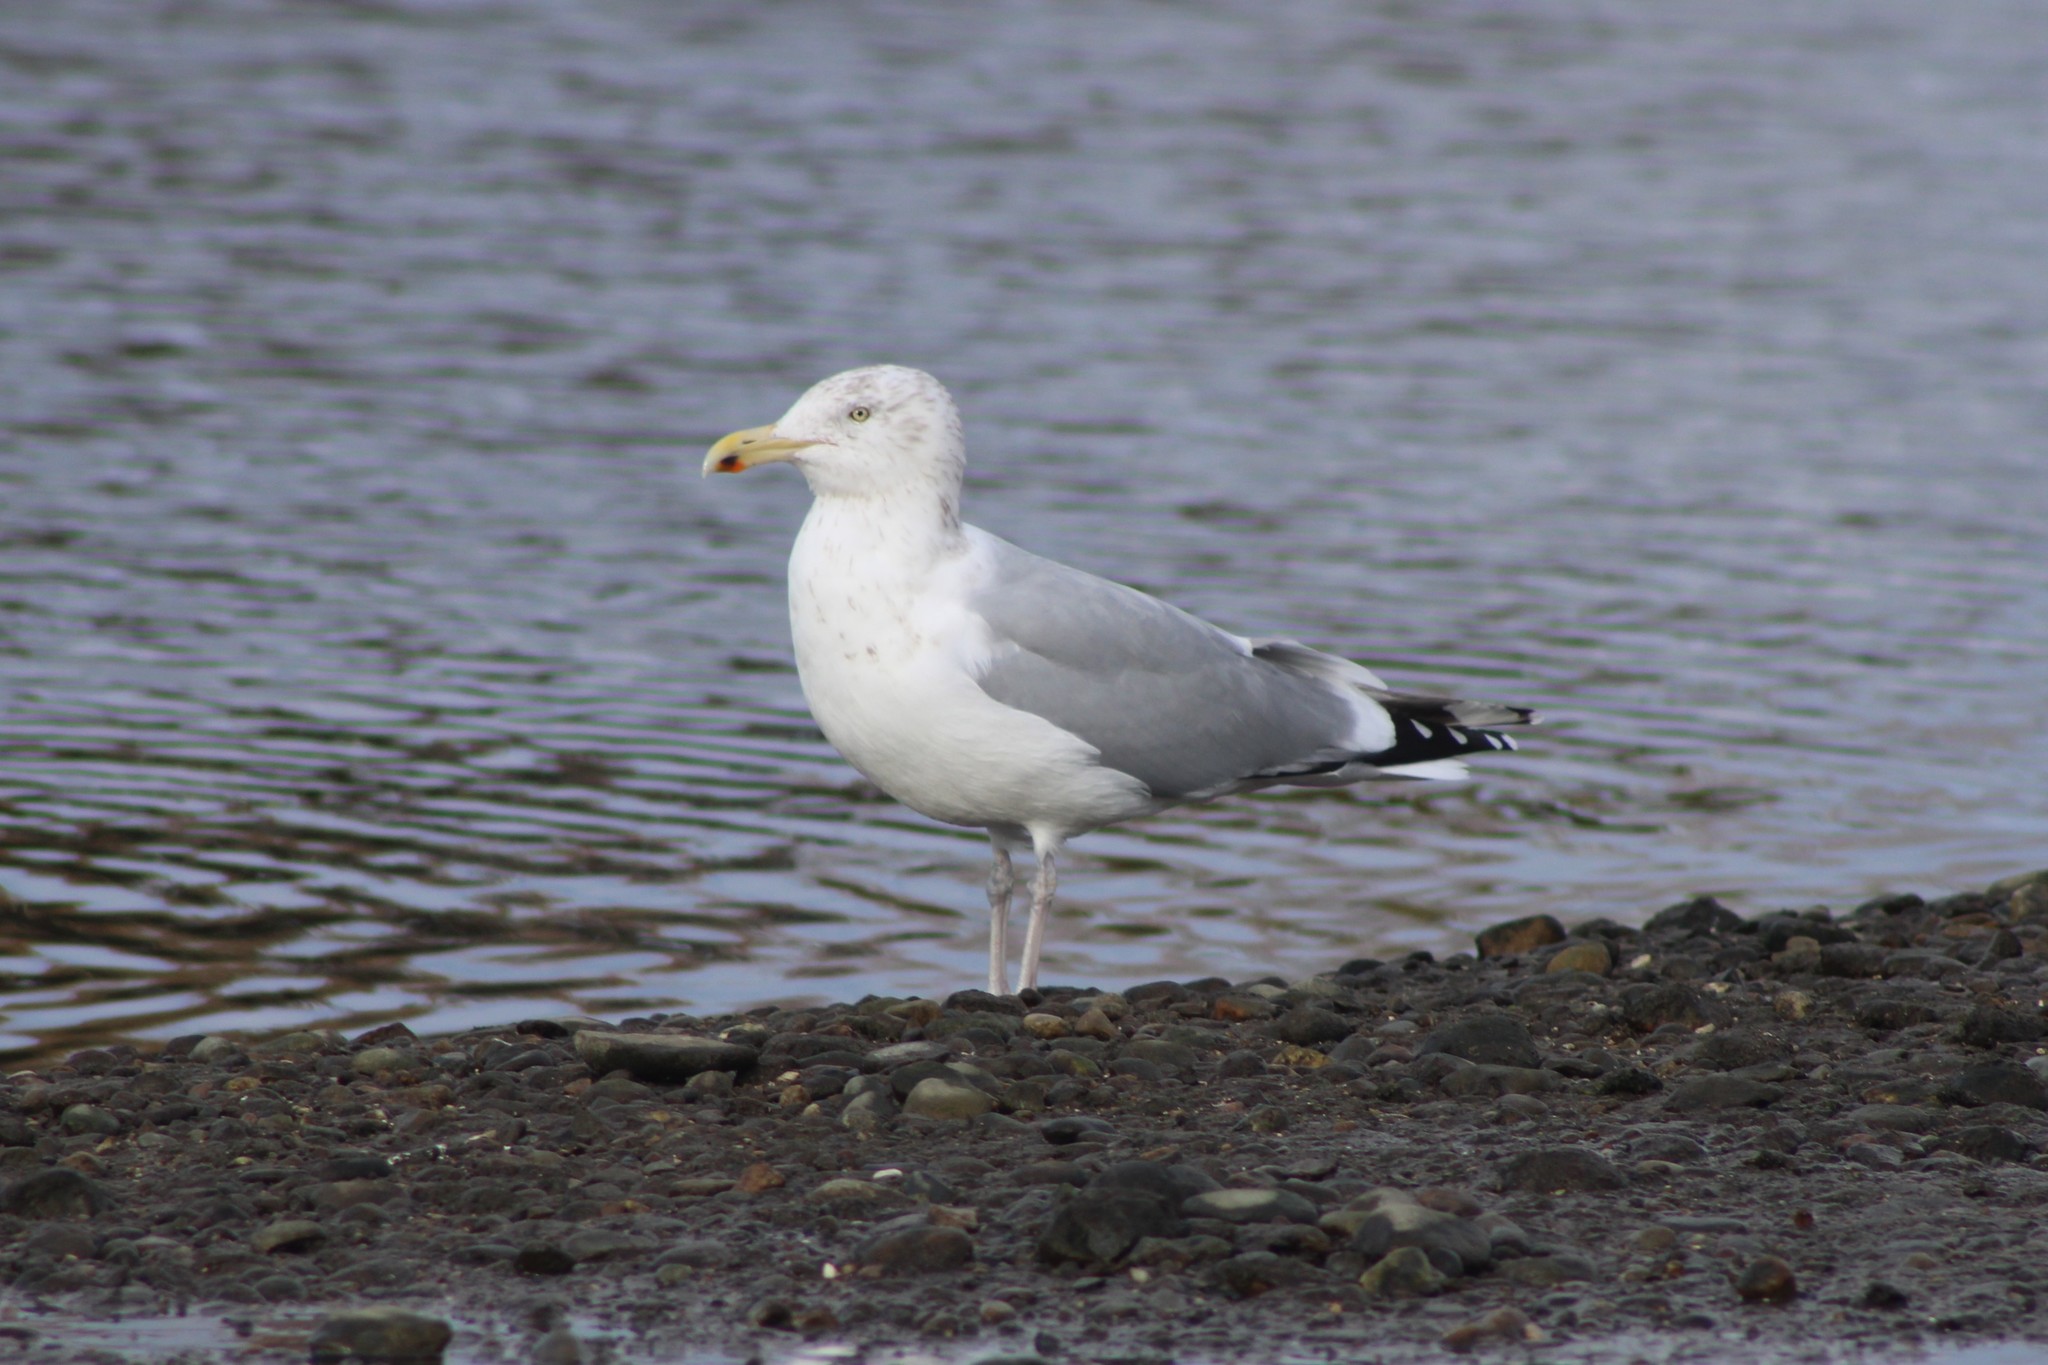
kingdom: Animalia
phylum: Chordata
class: Aves
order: Charadriiformes
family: Laridae
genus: Larus
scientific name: Larus argentatus
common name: Herring gull
